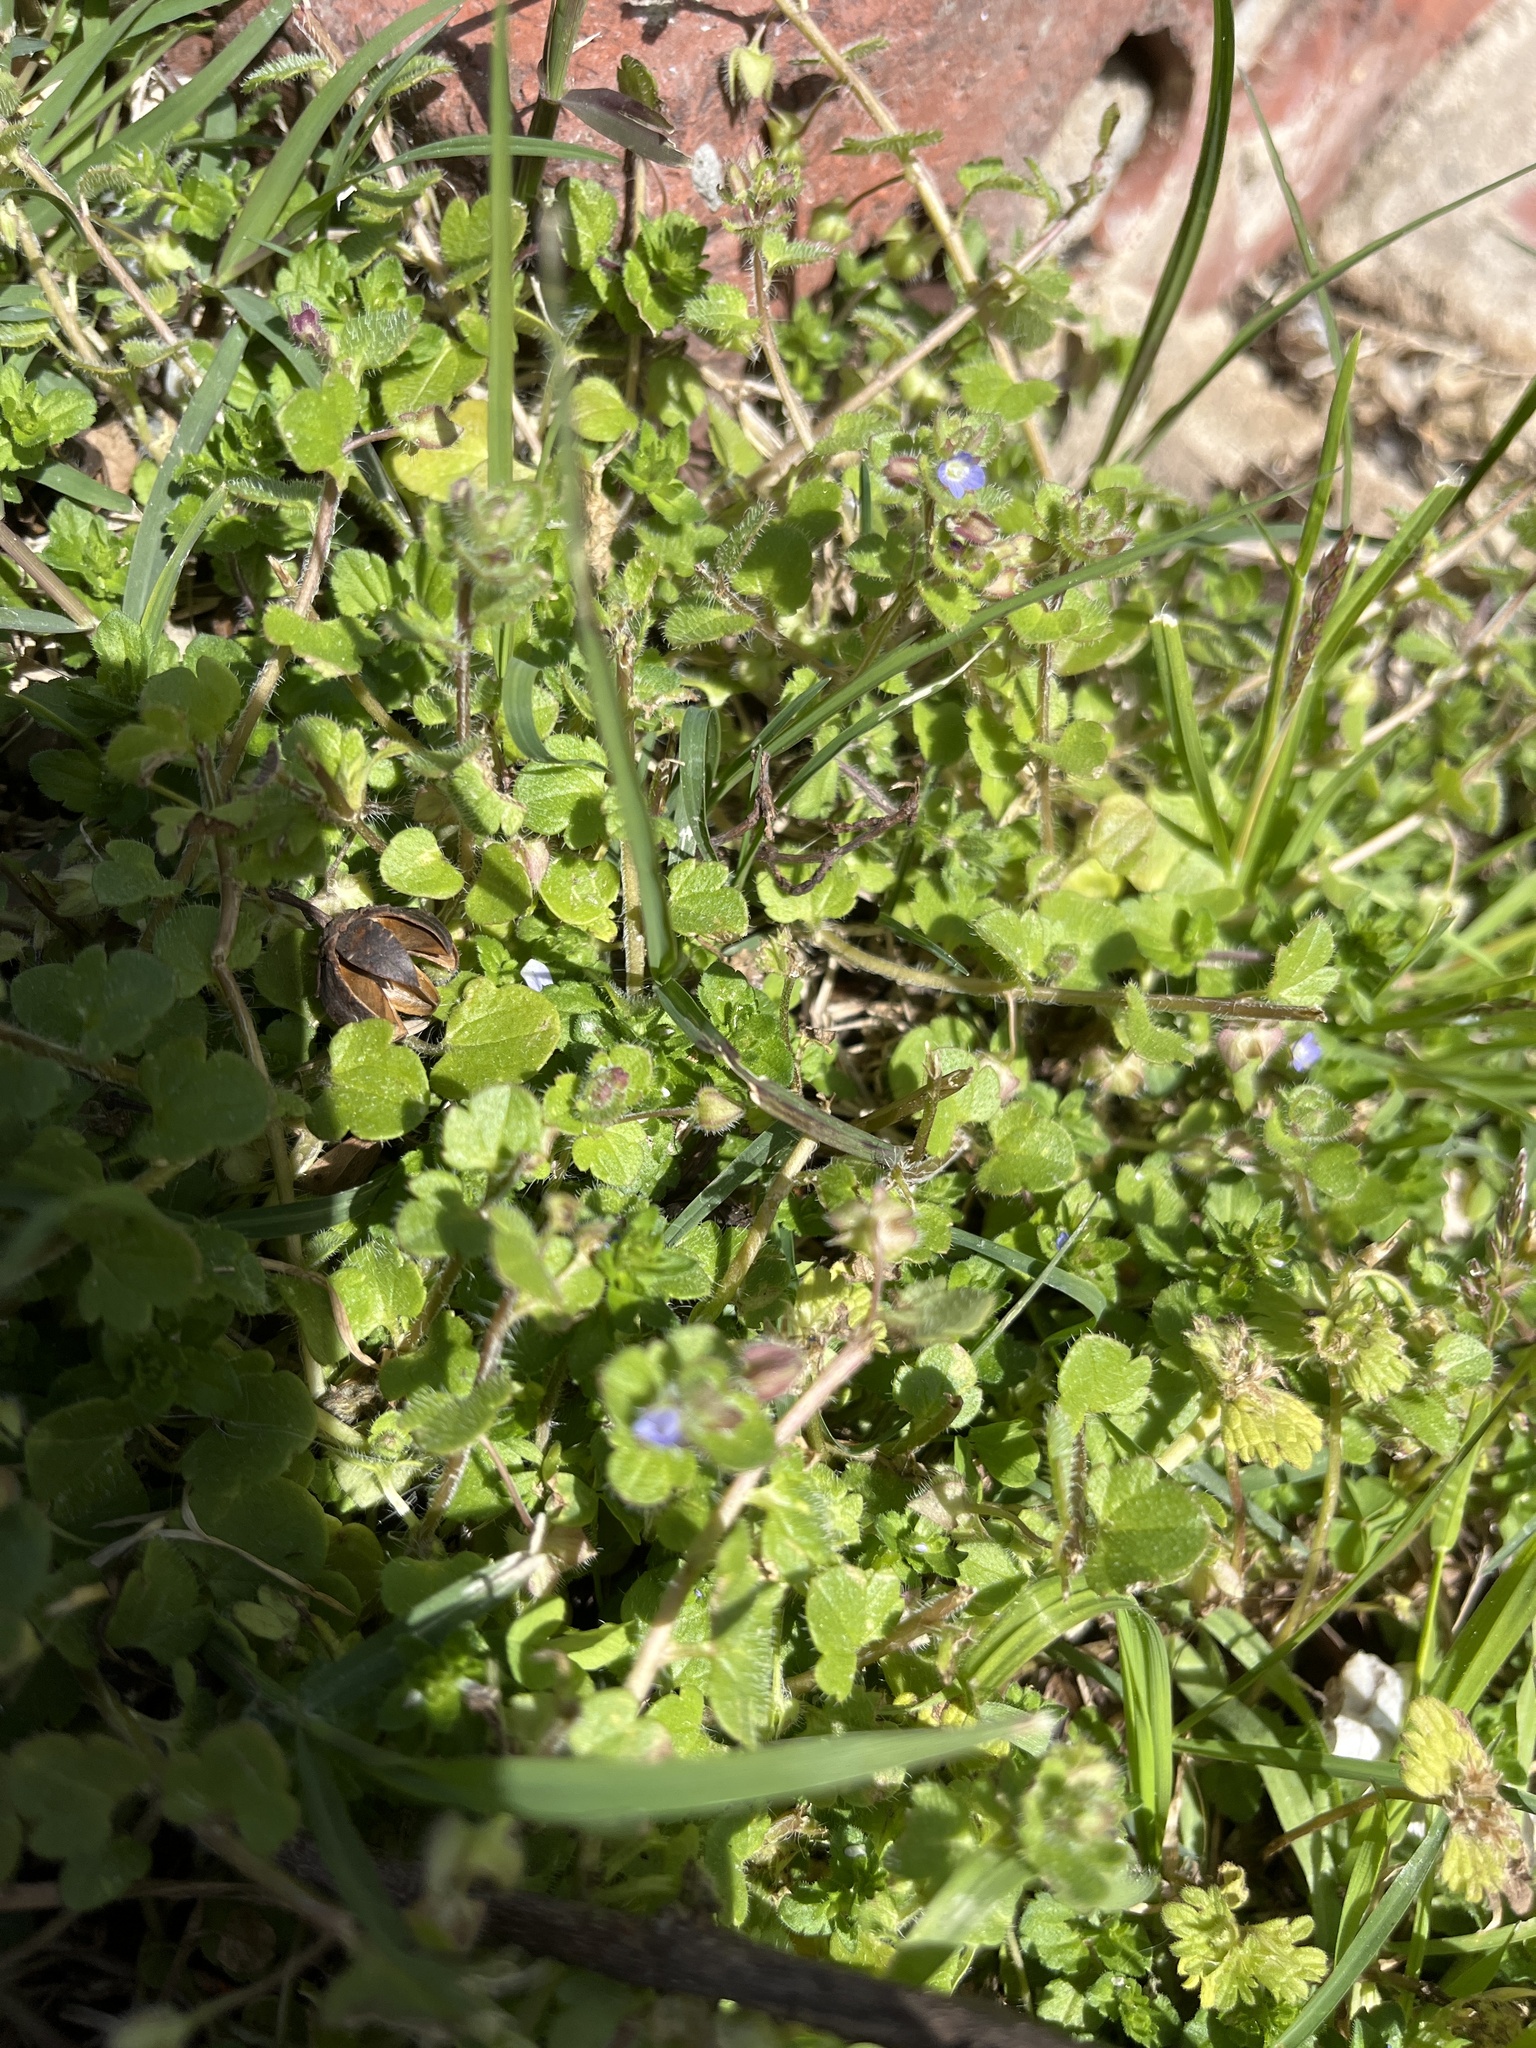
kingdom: Plantae
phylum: Tracheophyta
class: Magnoliopsida
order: Lamiales
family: Plantaginaceae
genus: Veronica
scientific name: Veronica hederifolia
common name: Ivy-leaved speedwell
